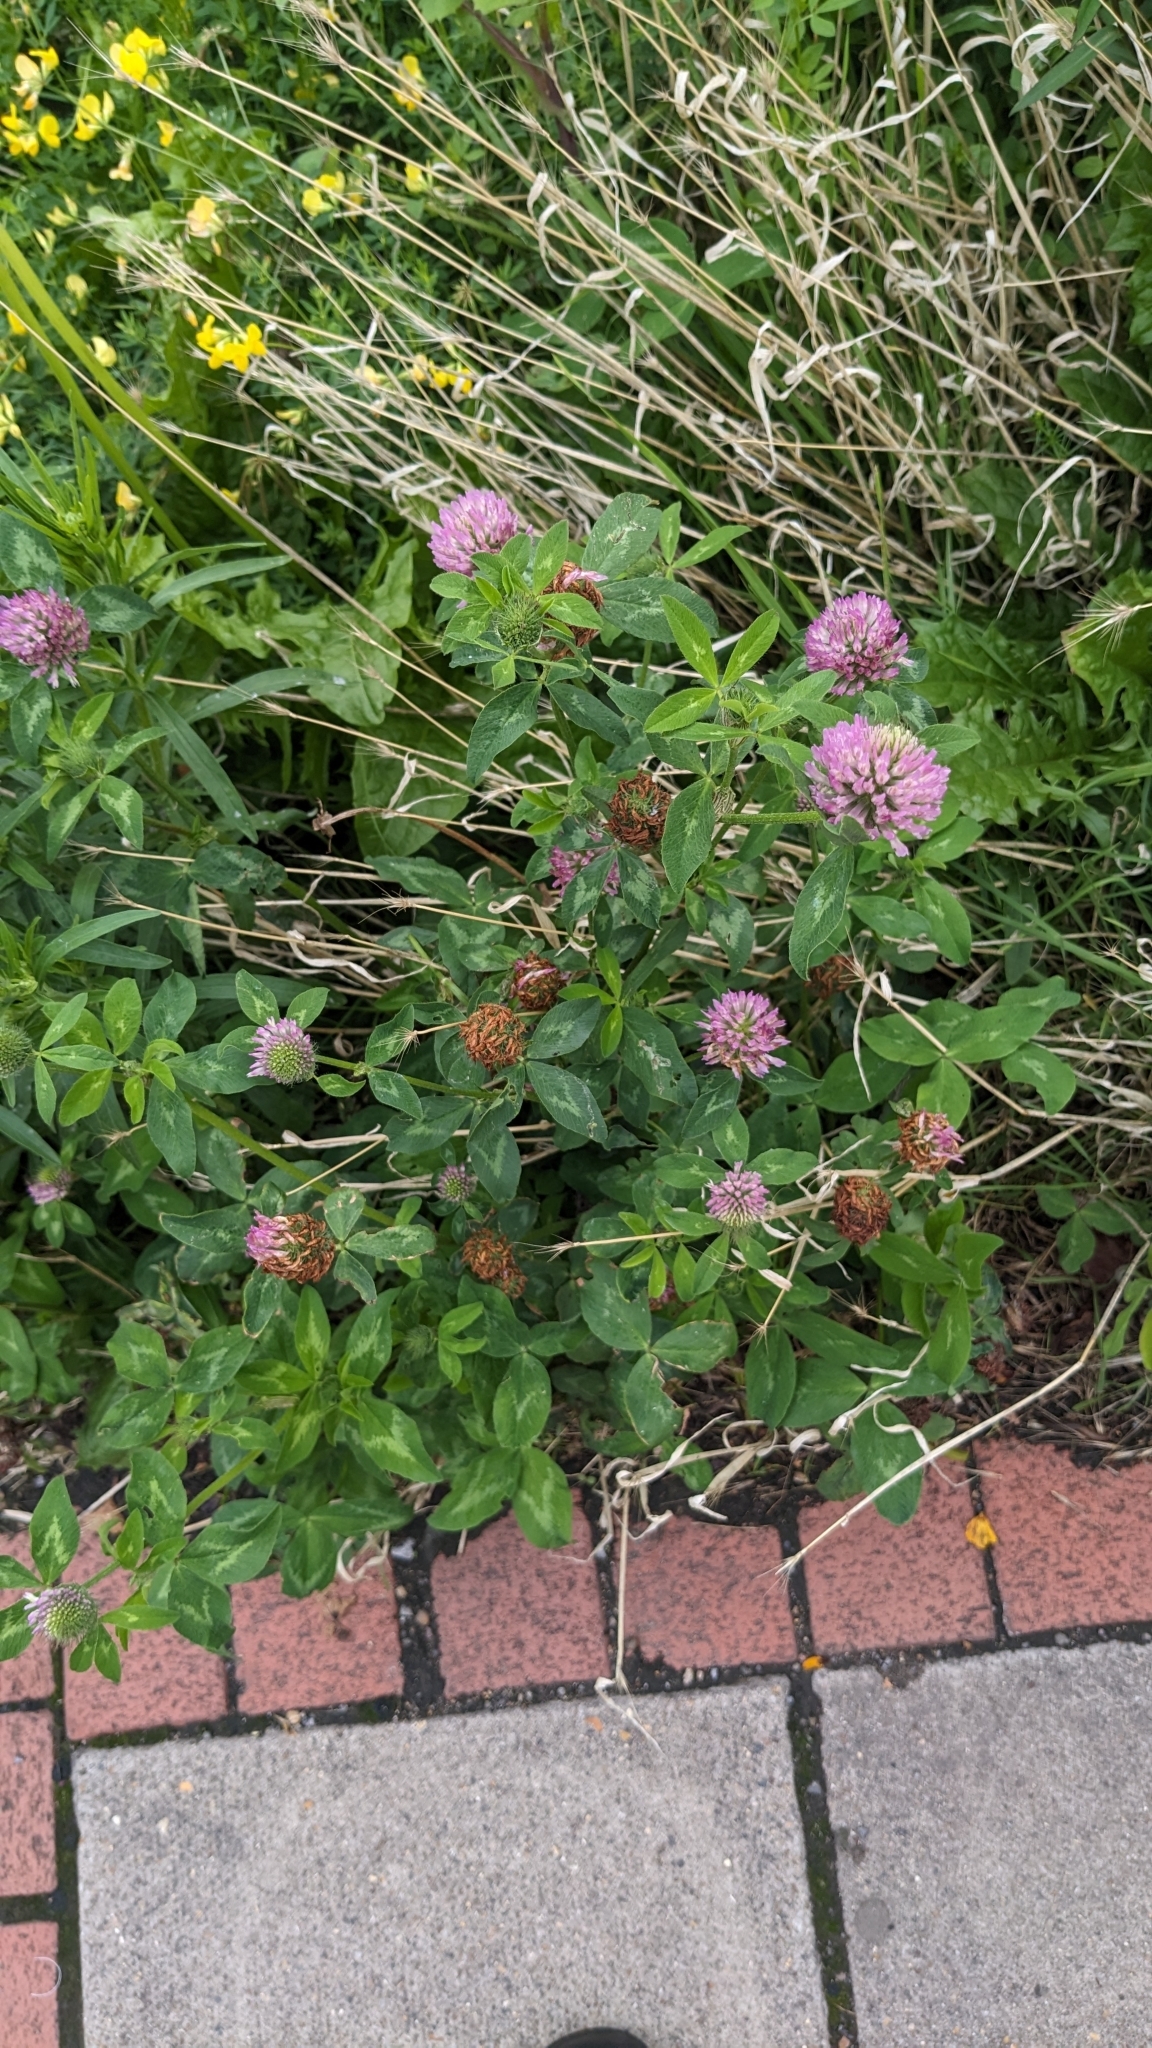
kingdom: Plantae
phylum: Tracheophyta
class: Magnoliopsida
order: Fabales
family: Fabaceae
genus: Trifolium
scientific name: Trifolium pratense
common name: Red clover
